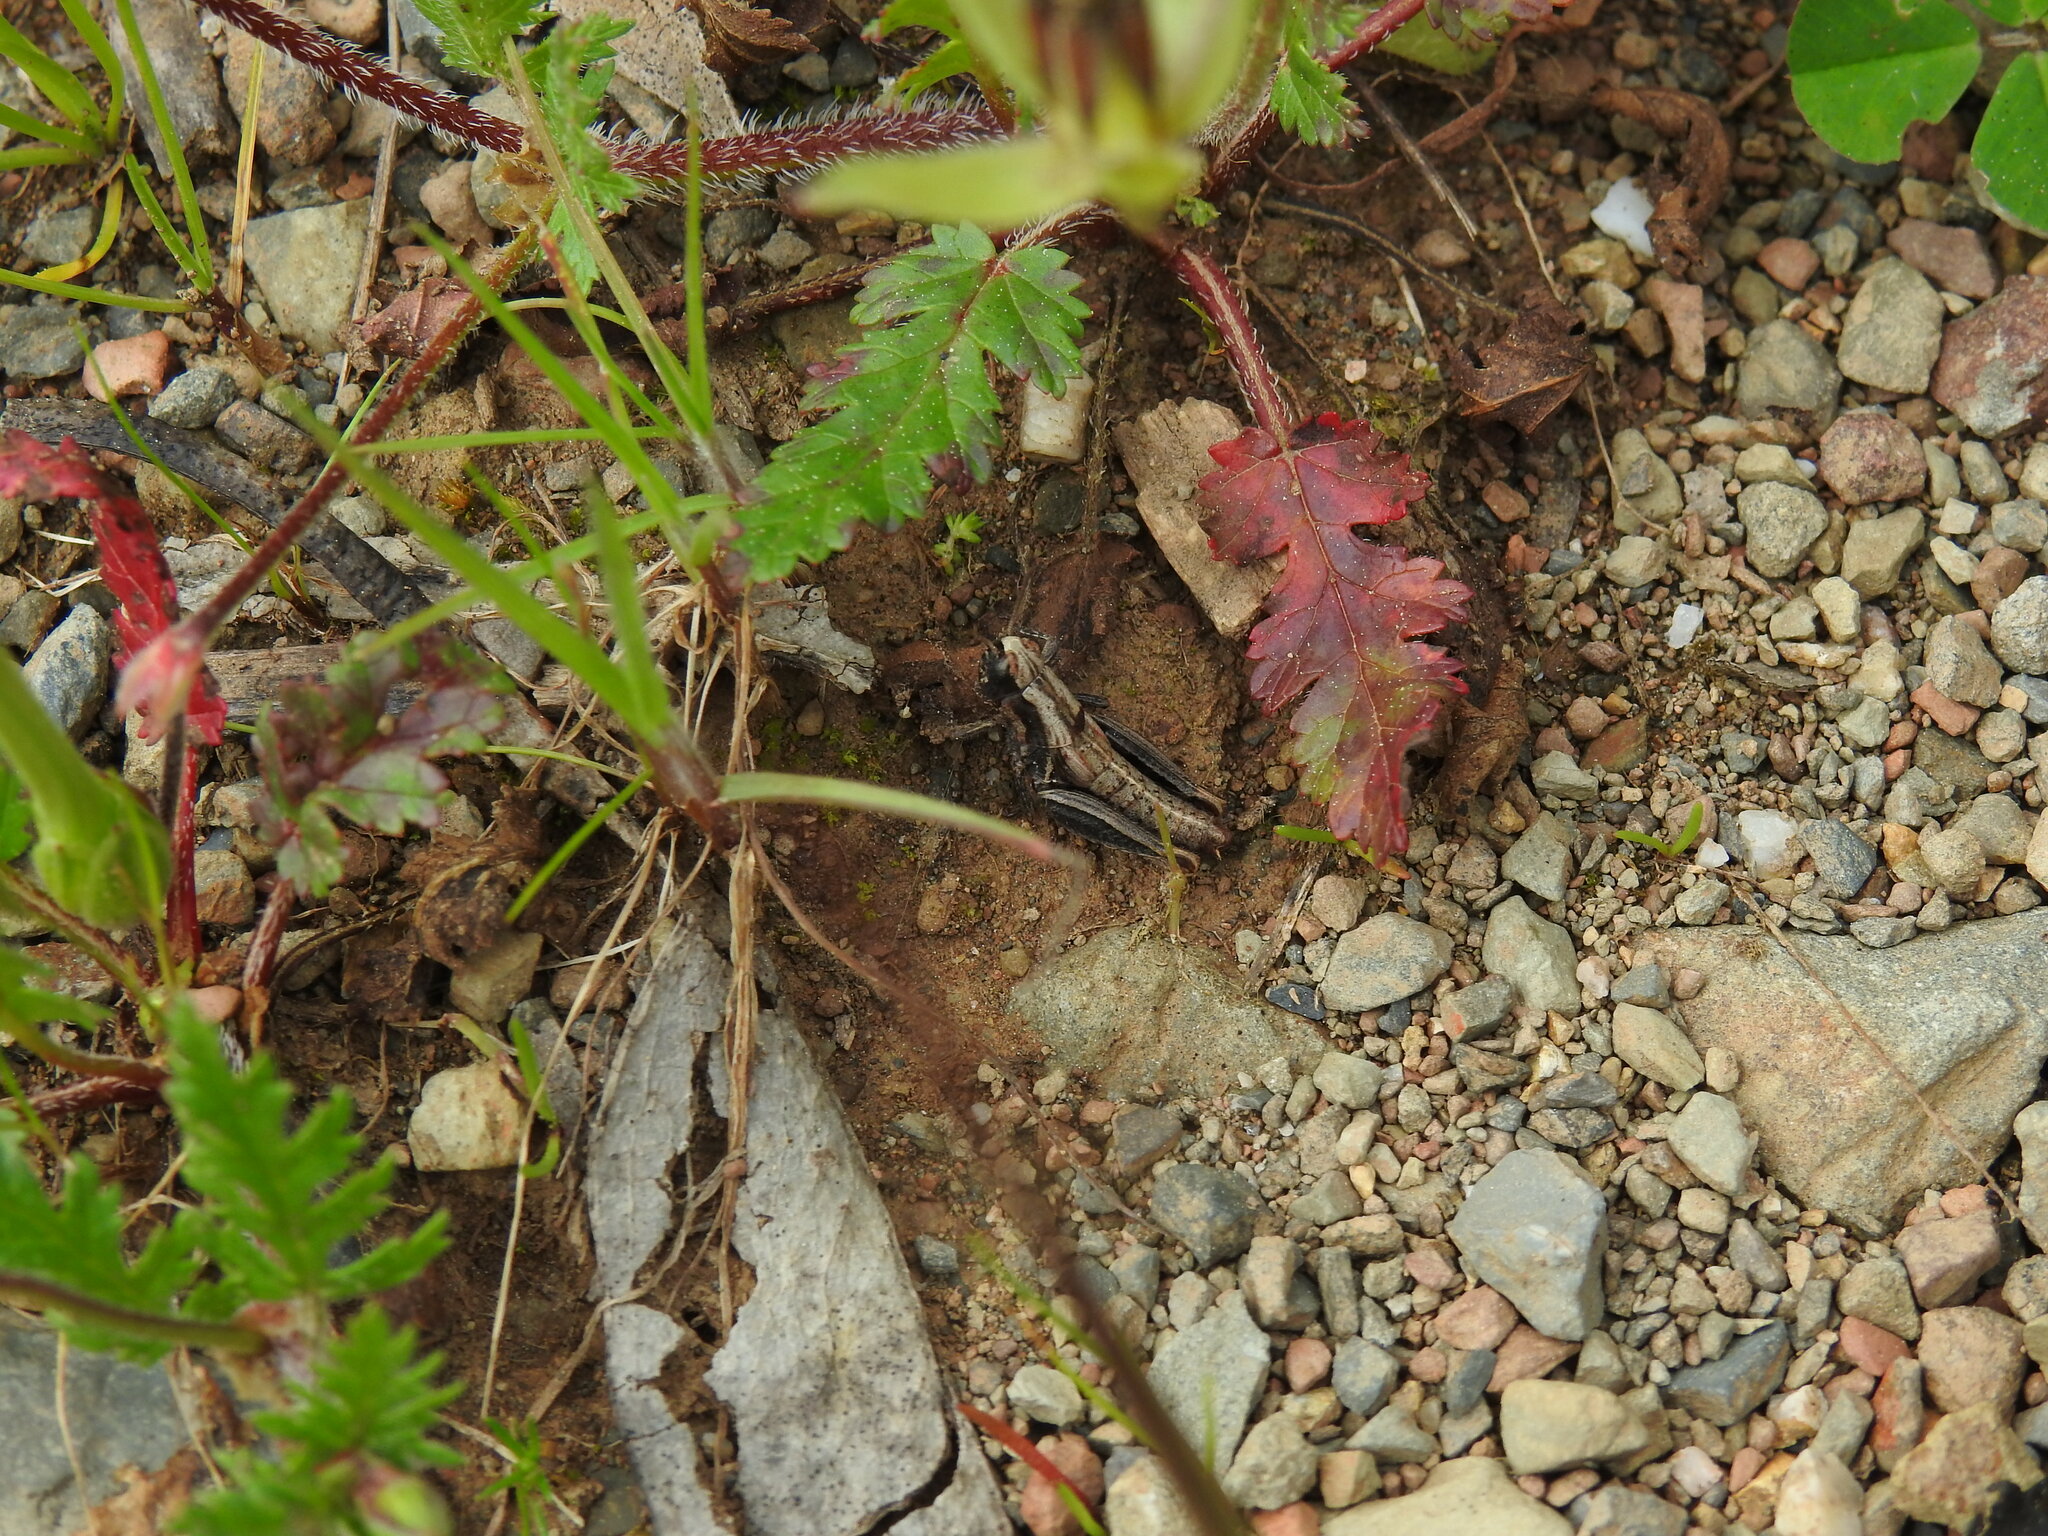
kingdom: Animalia
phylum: Arthropoda
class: Insecta
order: Orthoptera
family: Acrididae
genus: Pezotettix
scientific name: Pezotettix giornae
